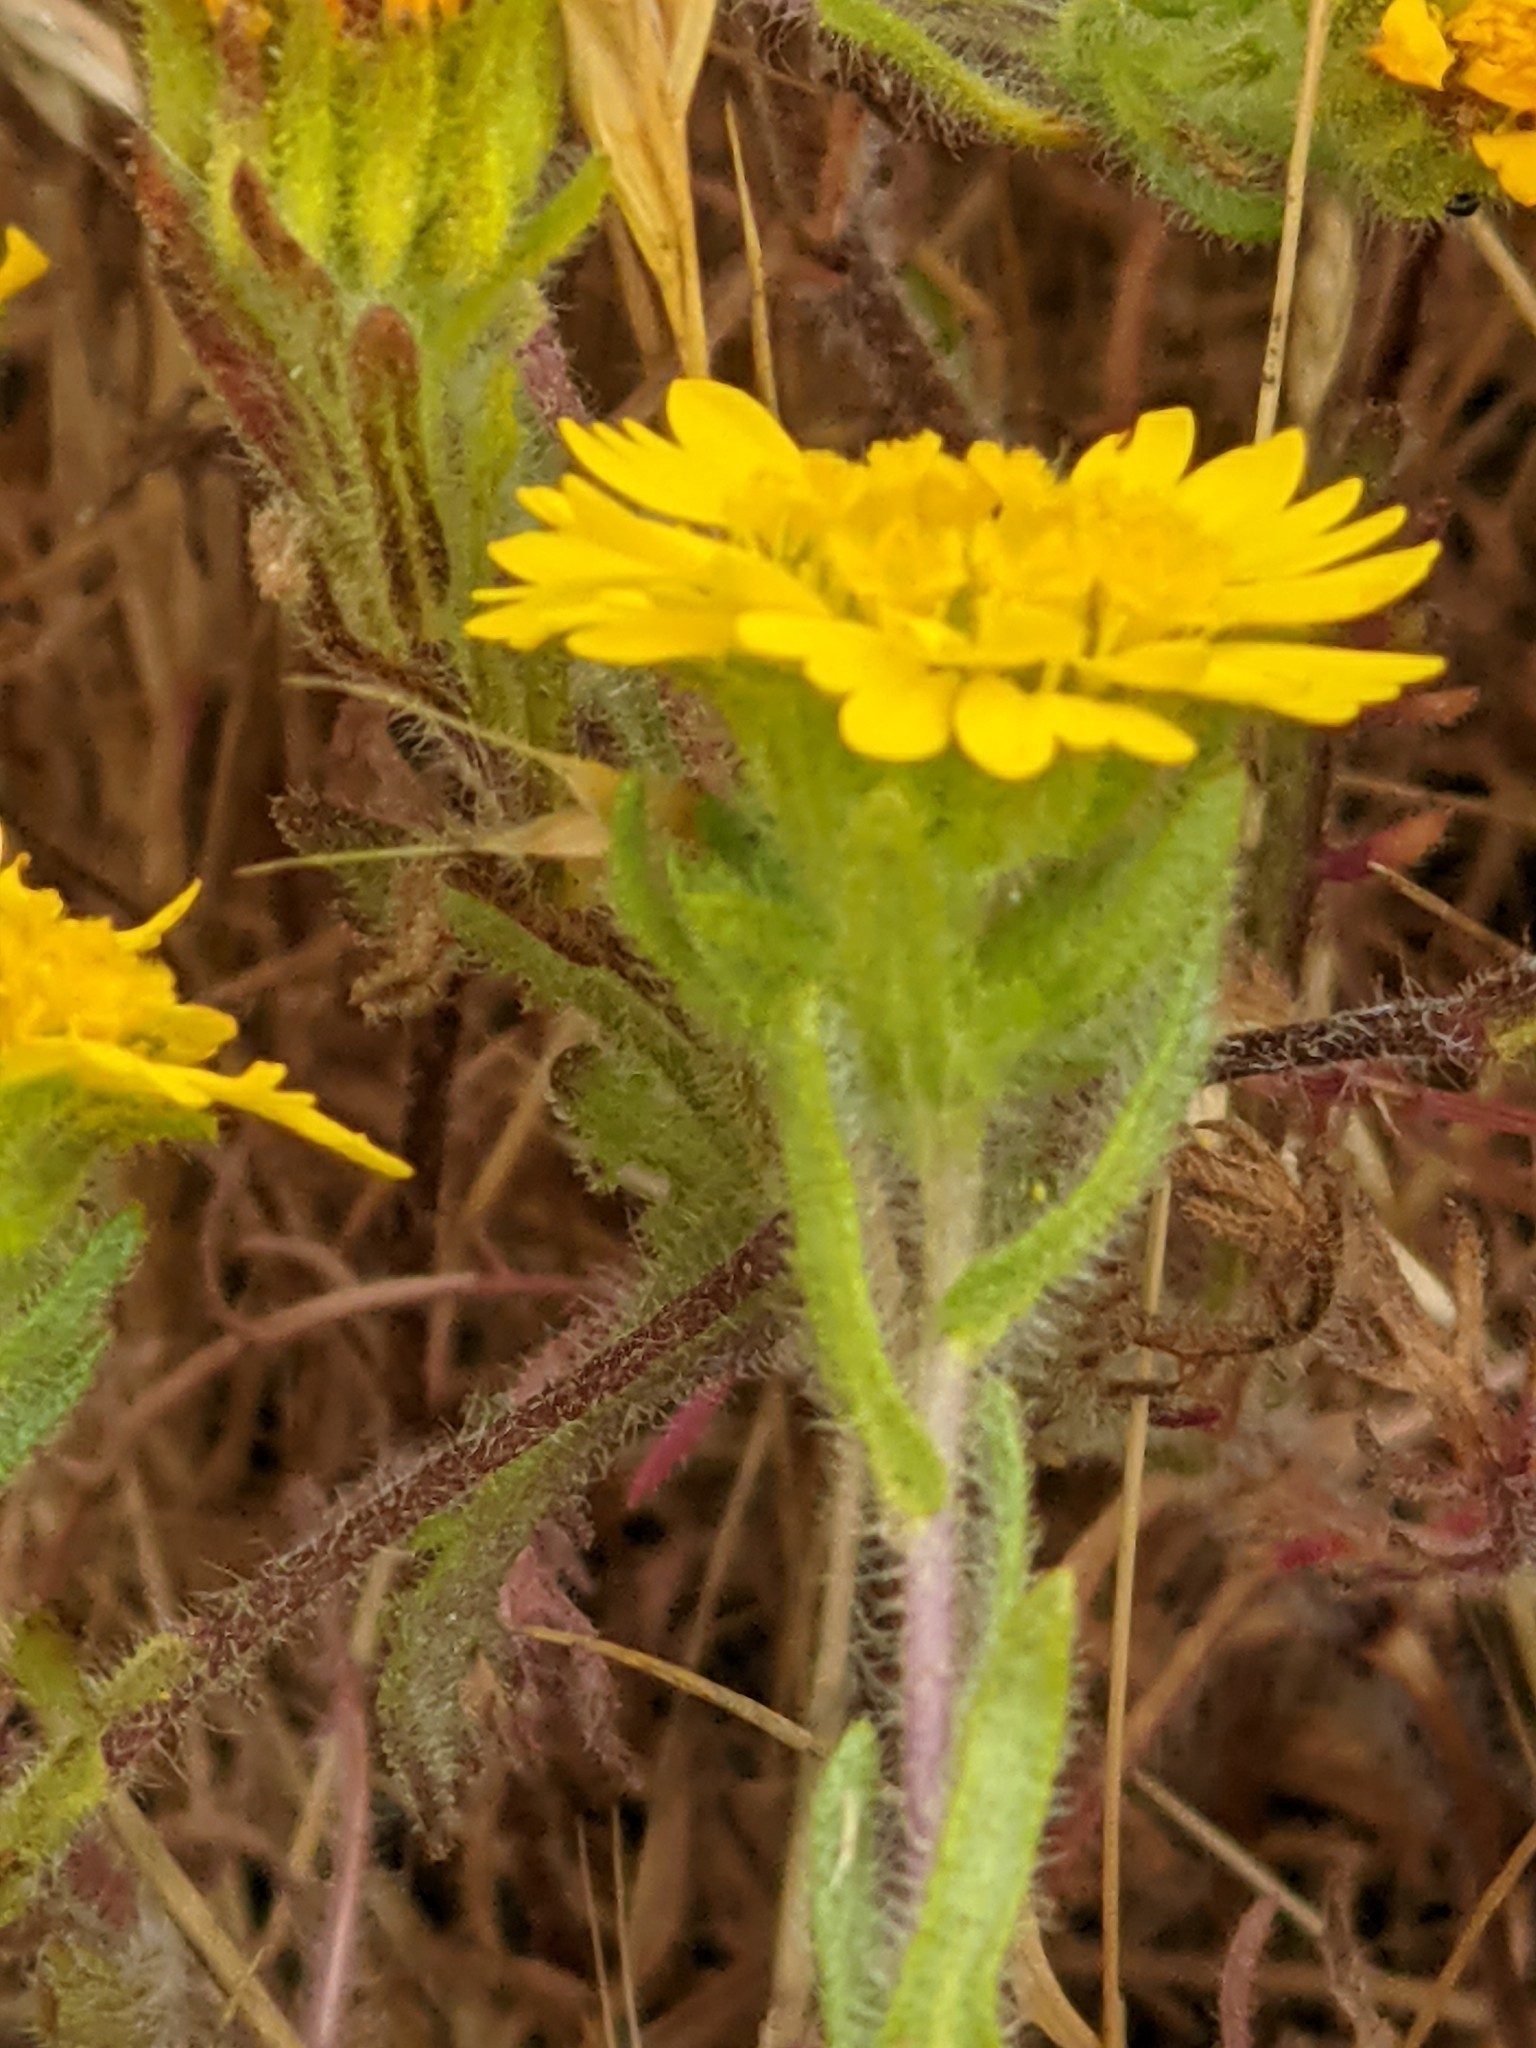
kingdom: Plantae
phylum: Tracheophyta
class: Magnoliopsida
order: Asterales
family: Asteraceae
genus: Deinandra
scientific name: Deinandra corymbosa
